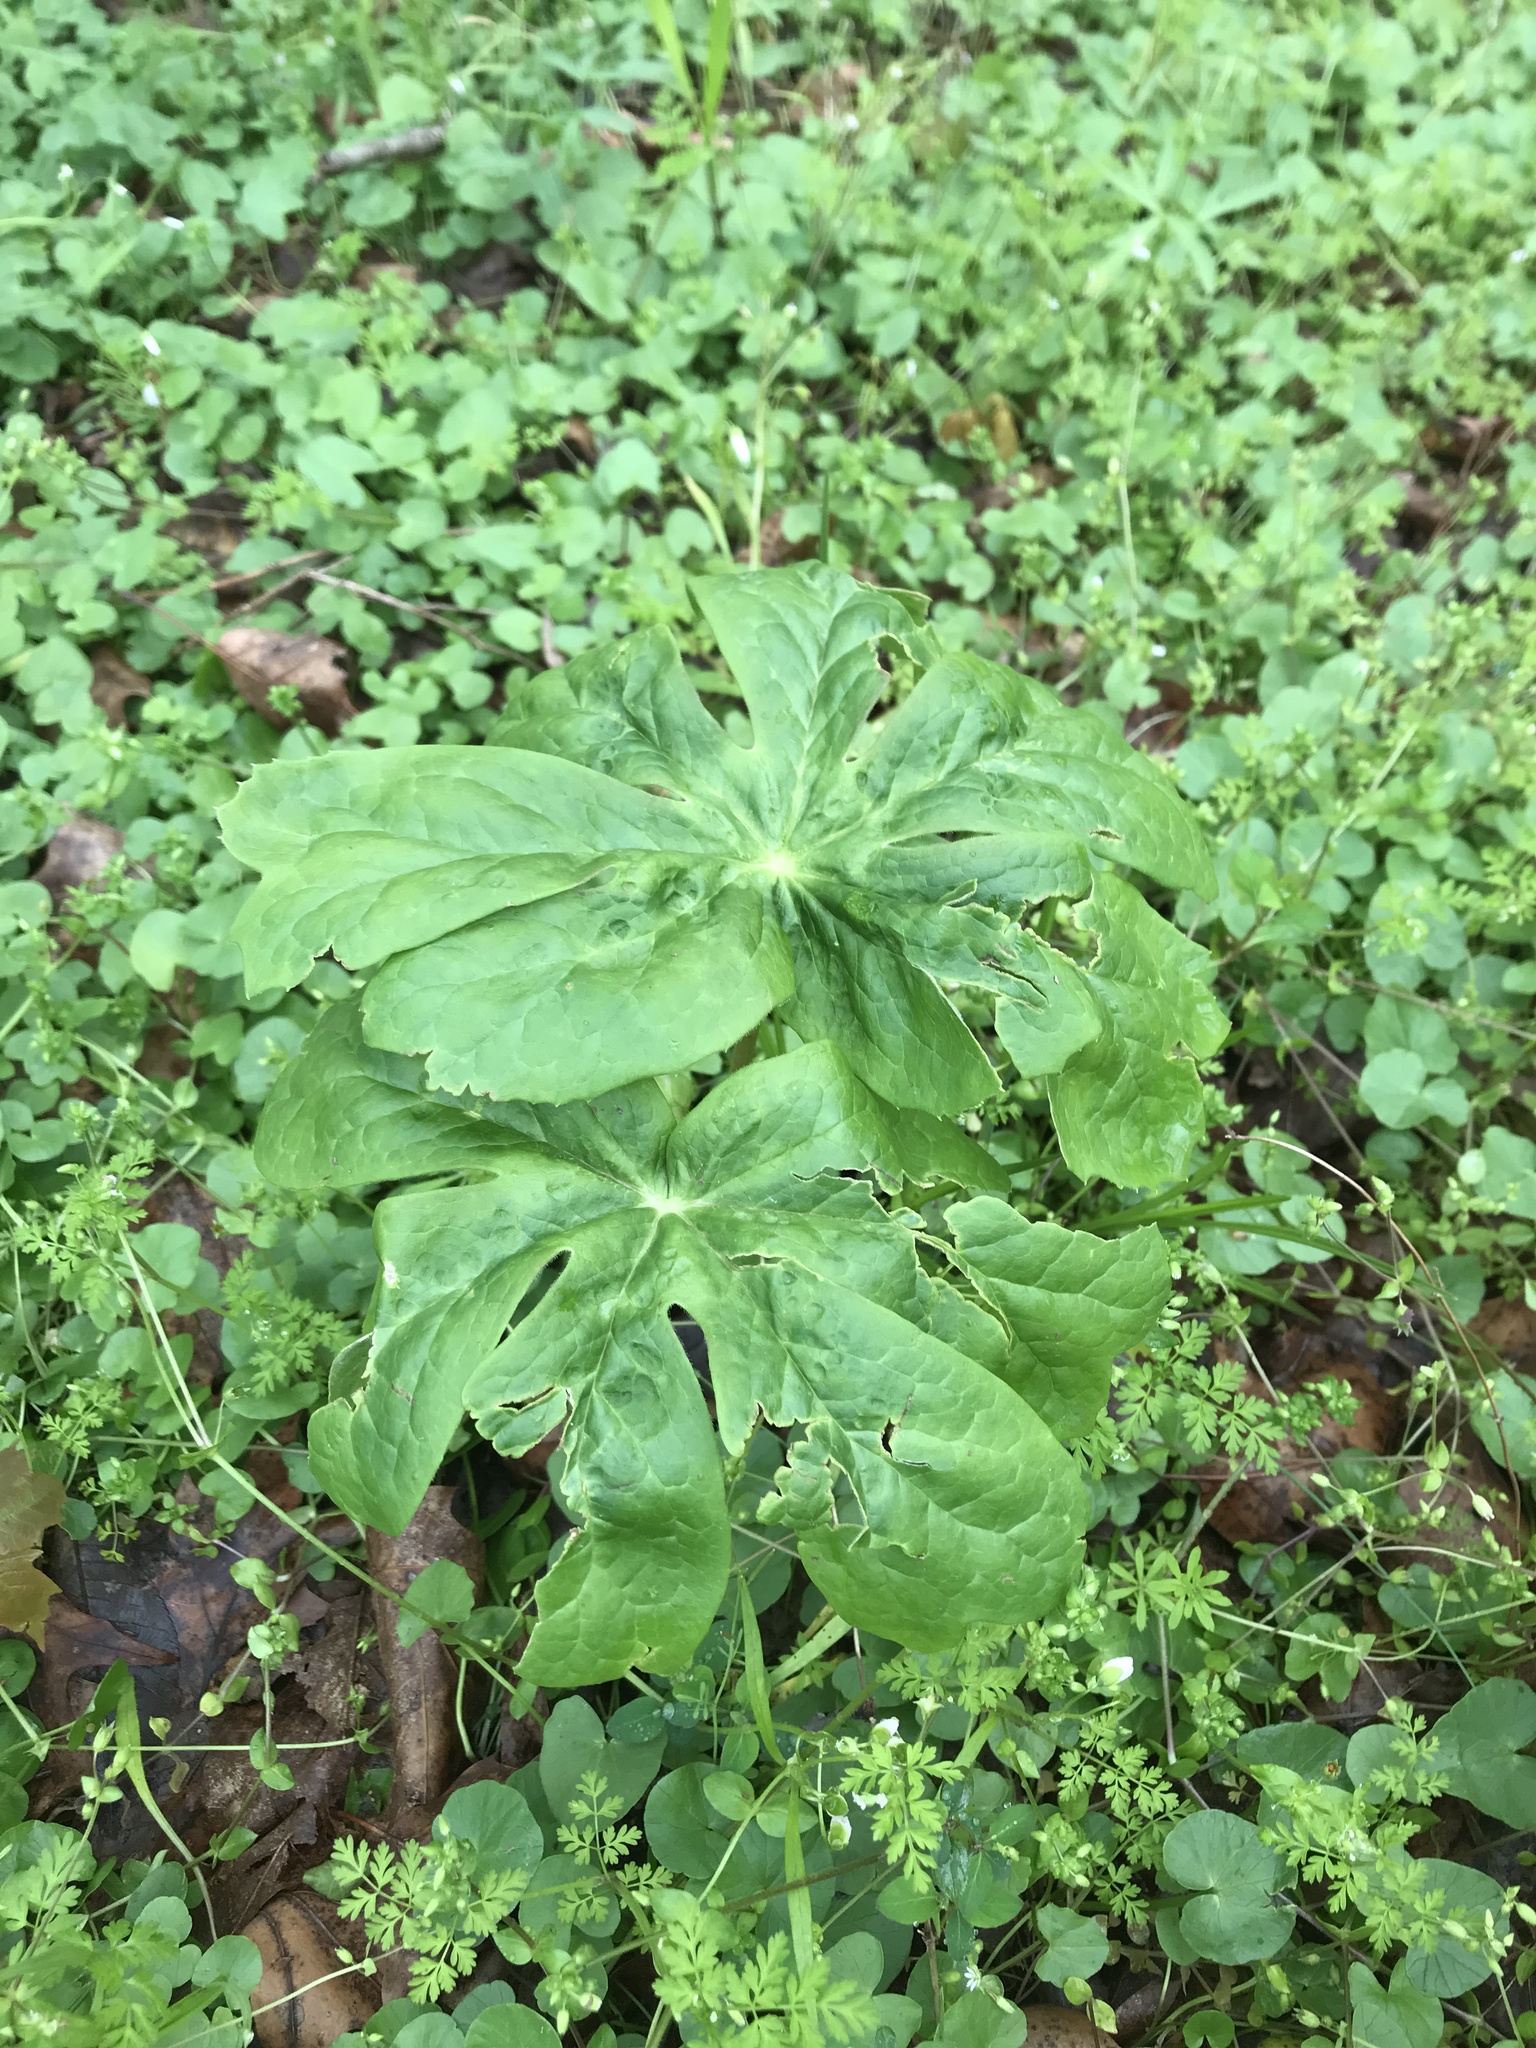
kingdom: Plantae
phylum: Tracheophyta
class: Magnoliopsida
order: Ranunculales
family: Berberidaceae
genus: Podophyllum
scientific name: Podophyllum peltatum
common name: Wild mandrake
